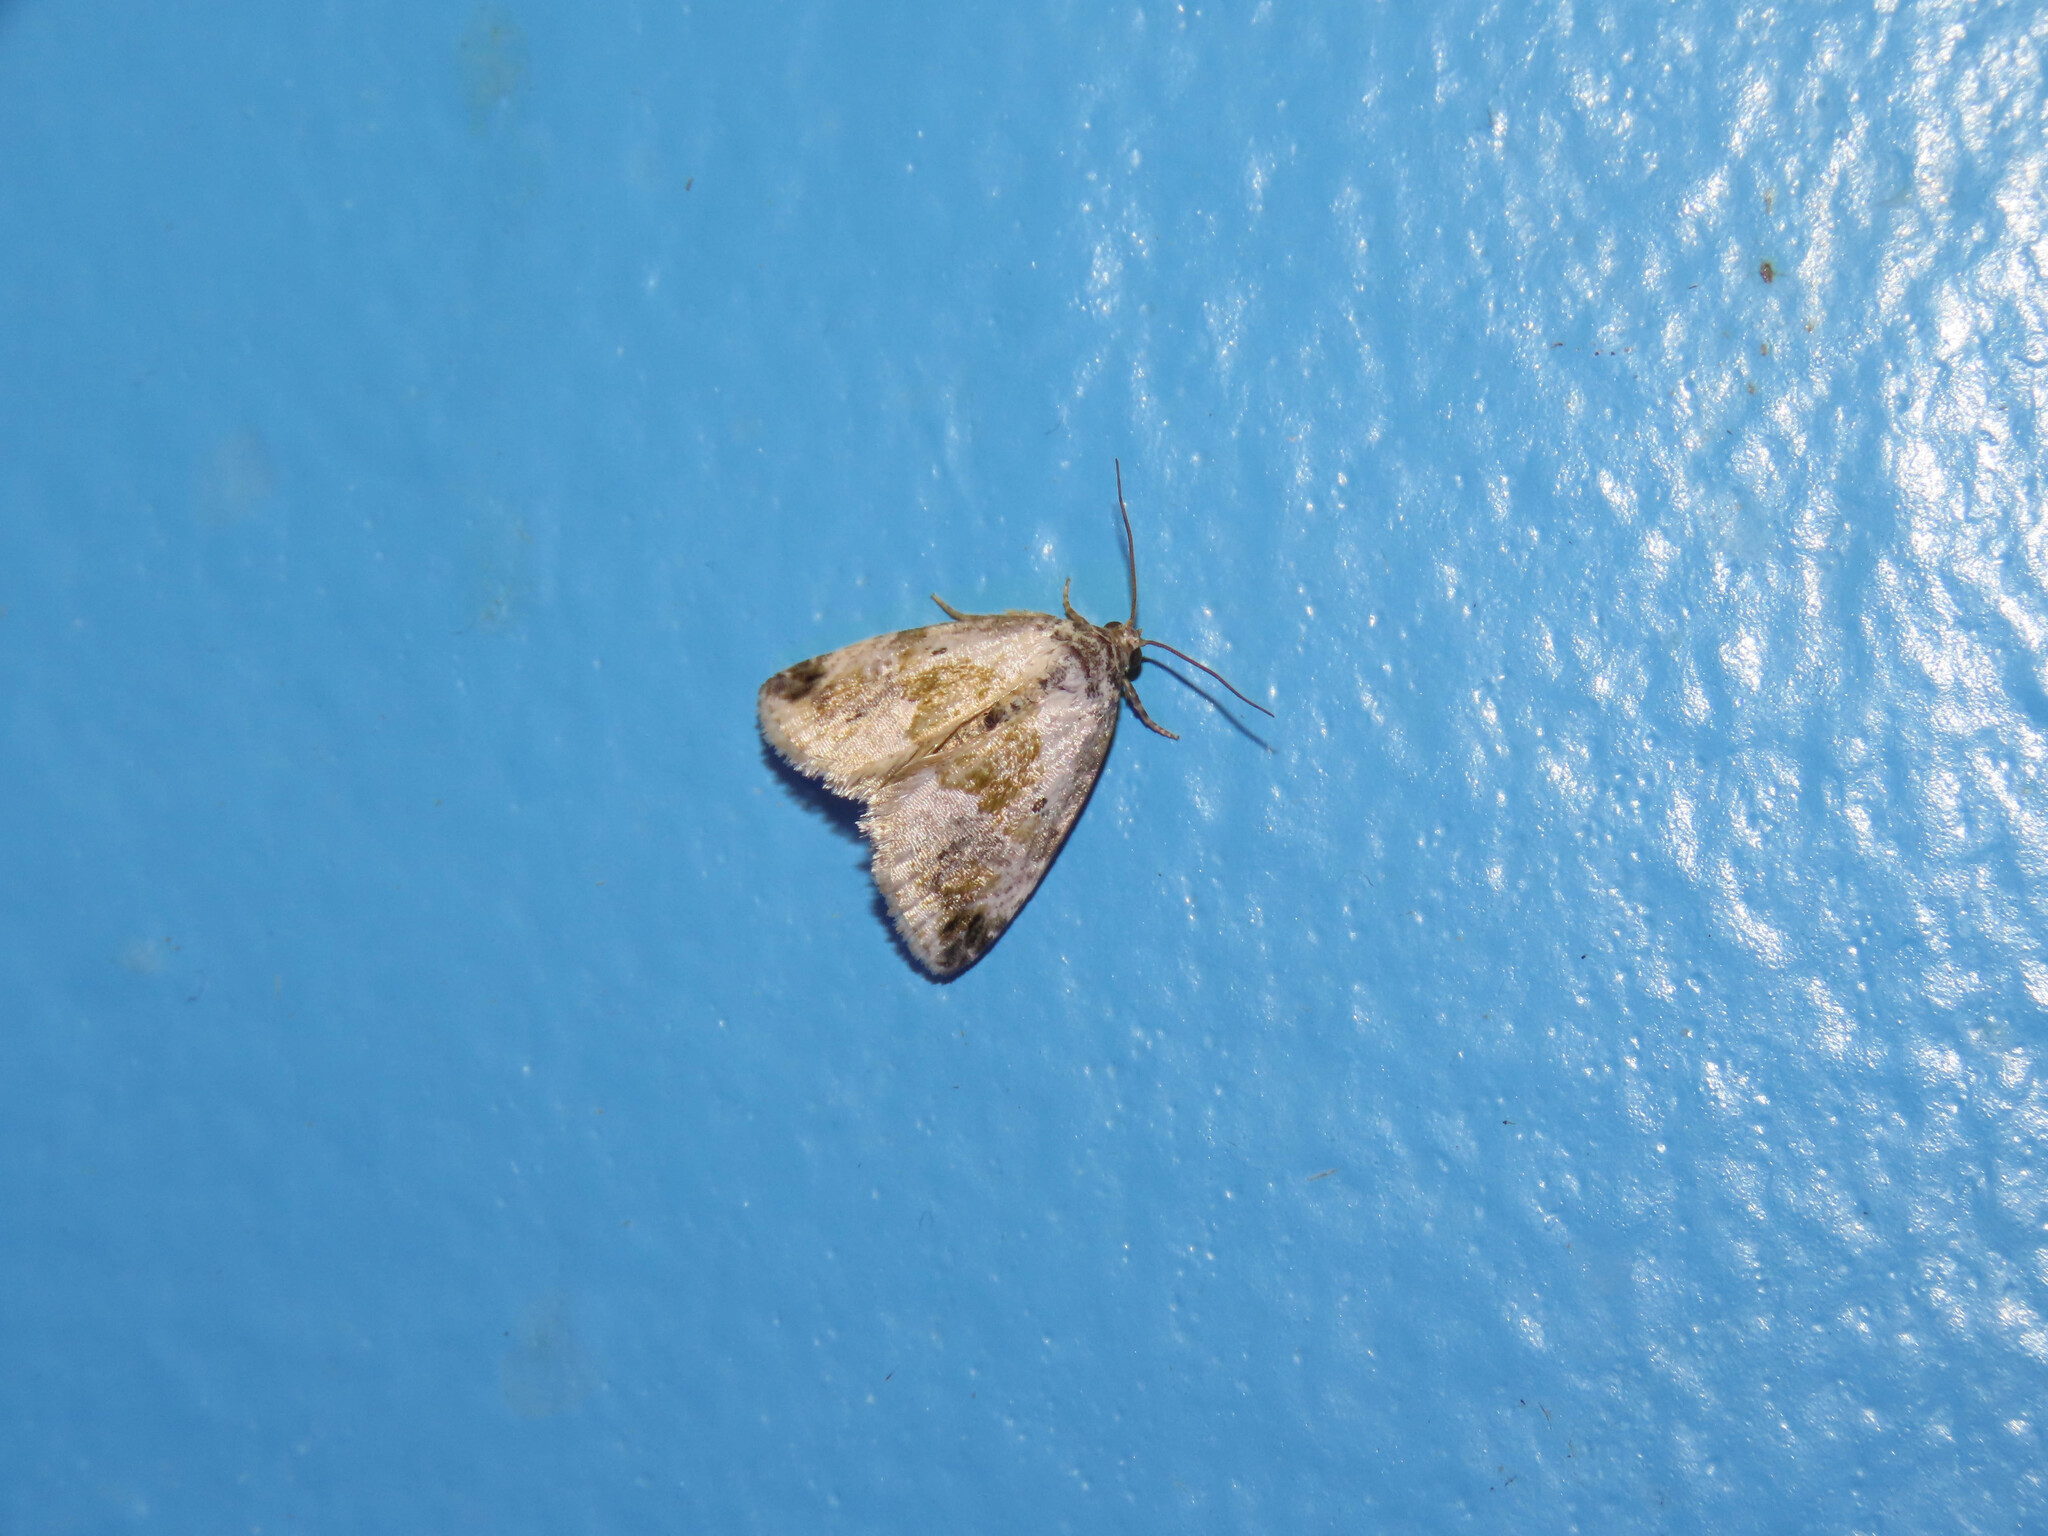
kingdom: Animalia
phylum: Arthropoda
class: Insecta
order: Lepidoptera
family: Noctuidae
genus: Maliattha
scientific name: Maliattha synochitis
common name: Black-dotted glyph
